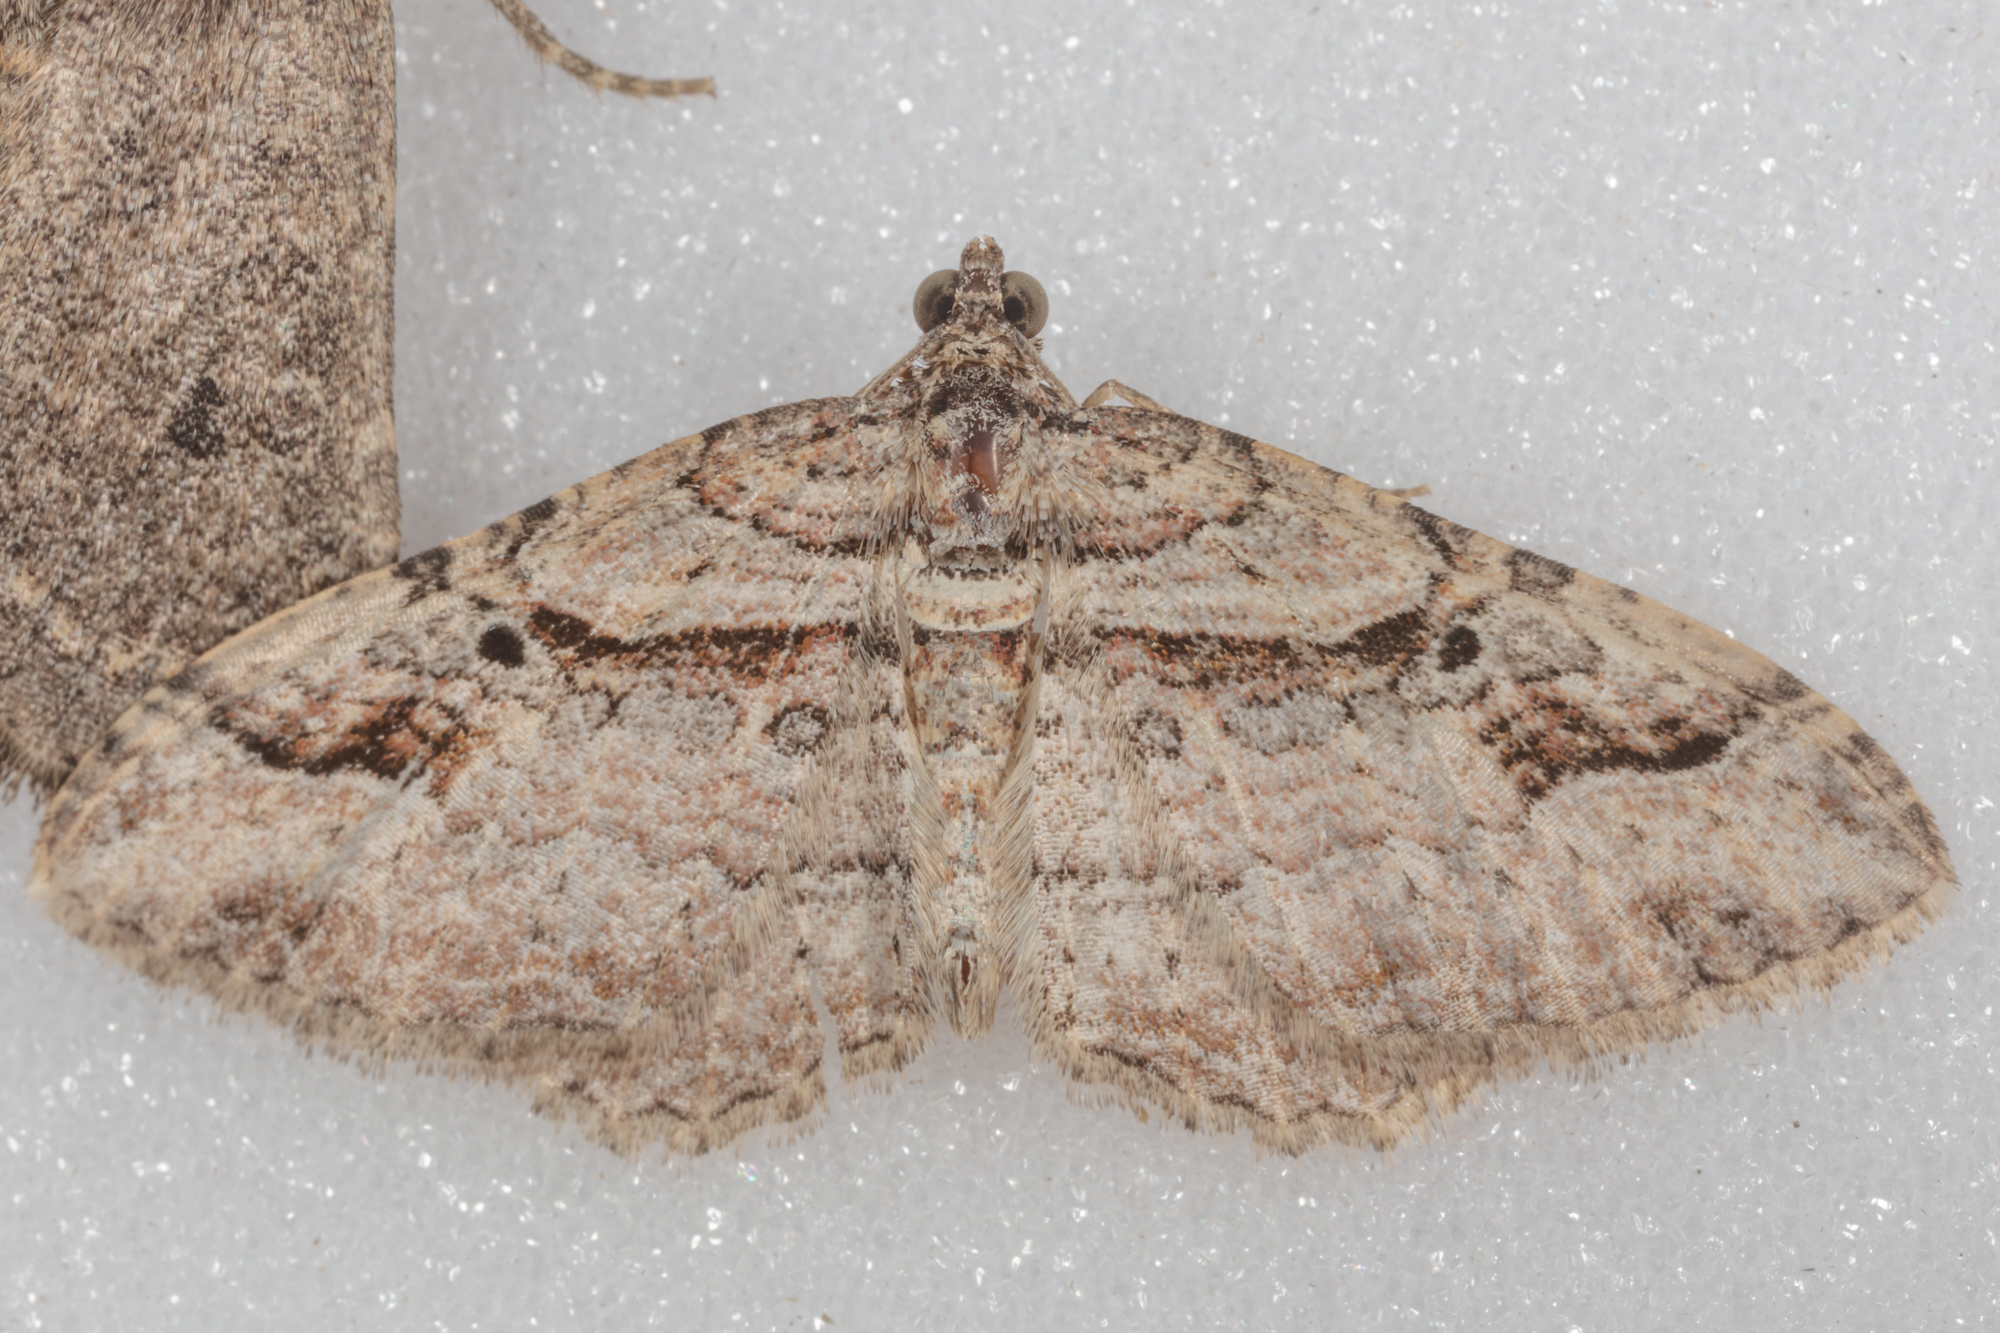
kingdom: Animalia
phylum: Arthropoda
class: Insecta
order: Lepidoptera
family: Geometridae
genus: Costaconvexa
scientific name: Costaconvexa centrostrigaria
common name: Bent-line carpet
